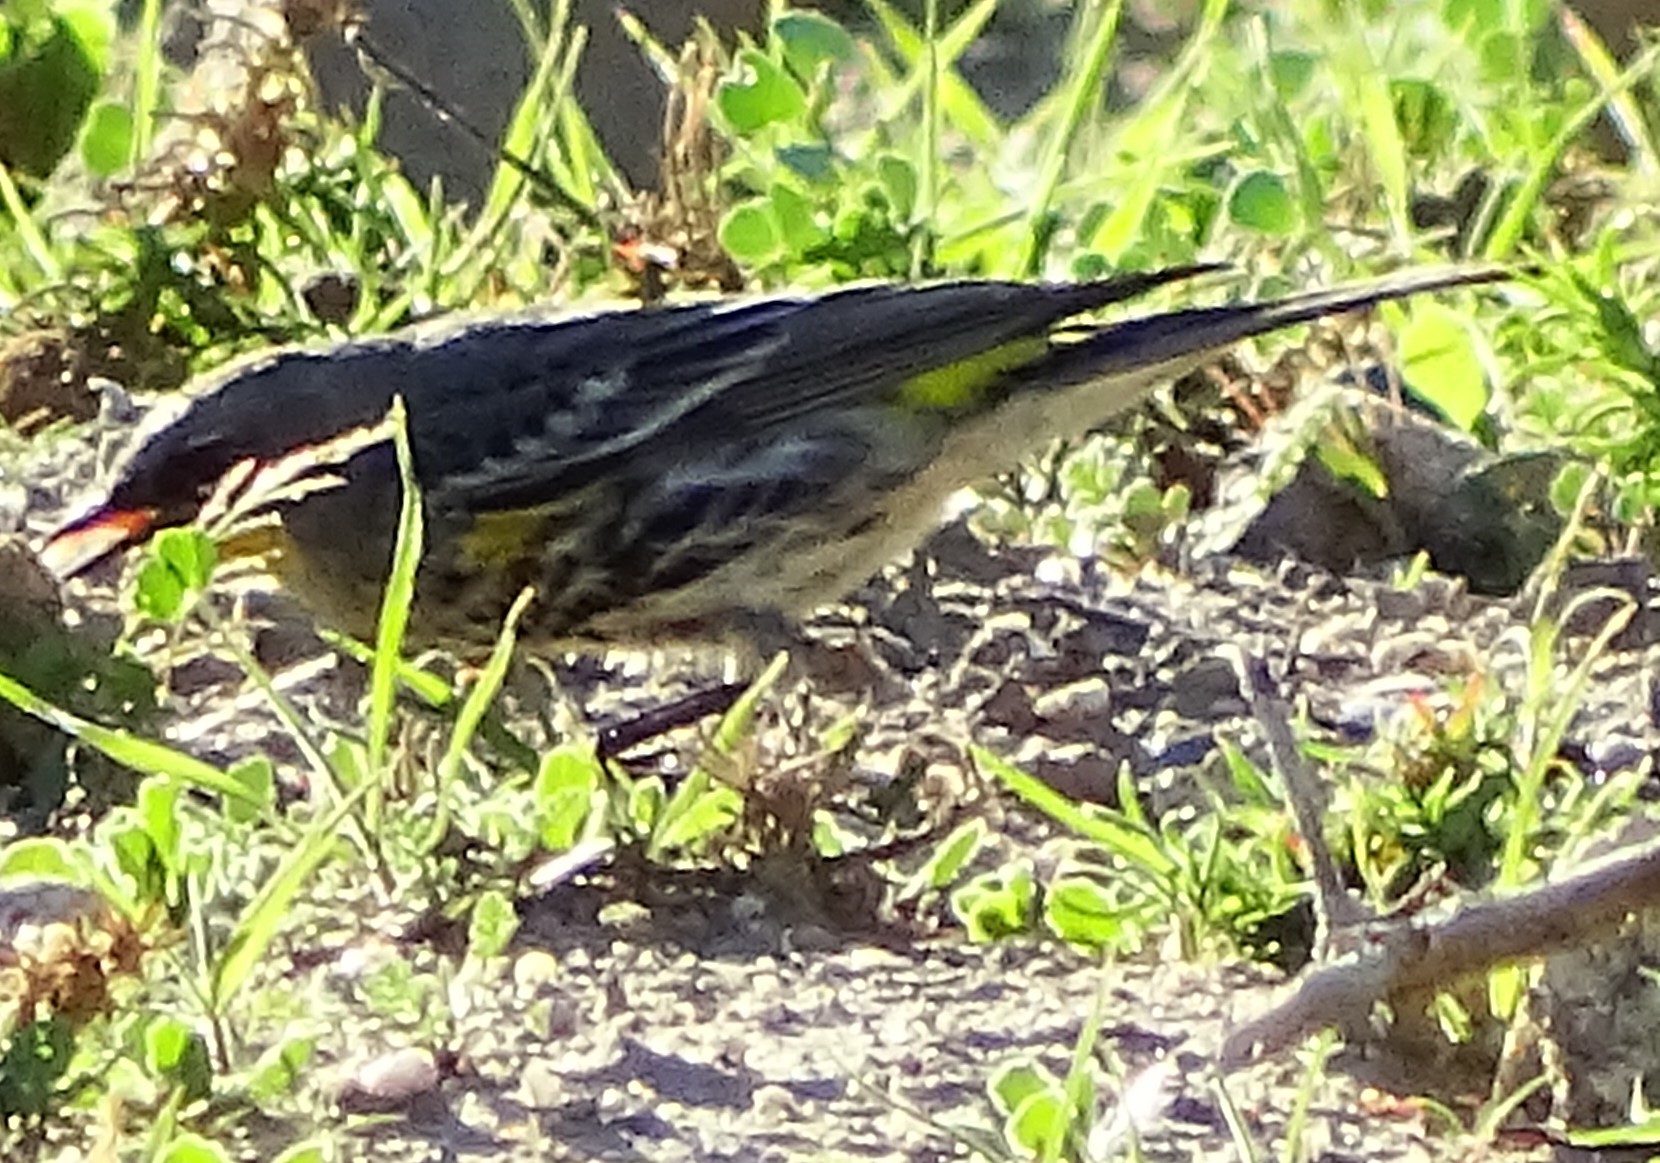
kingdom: Animalia
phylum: Chordata
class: Aves
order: Passeriformes
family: Parulidae
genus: Setophaga
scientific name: Setophaga coronata
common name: Myrtle warbler
